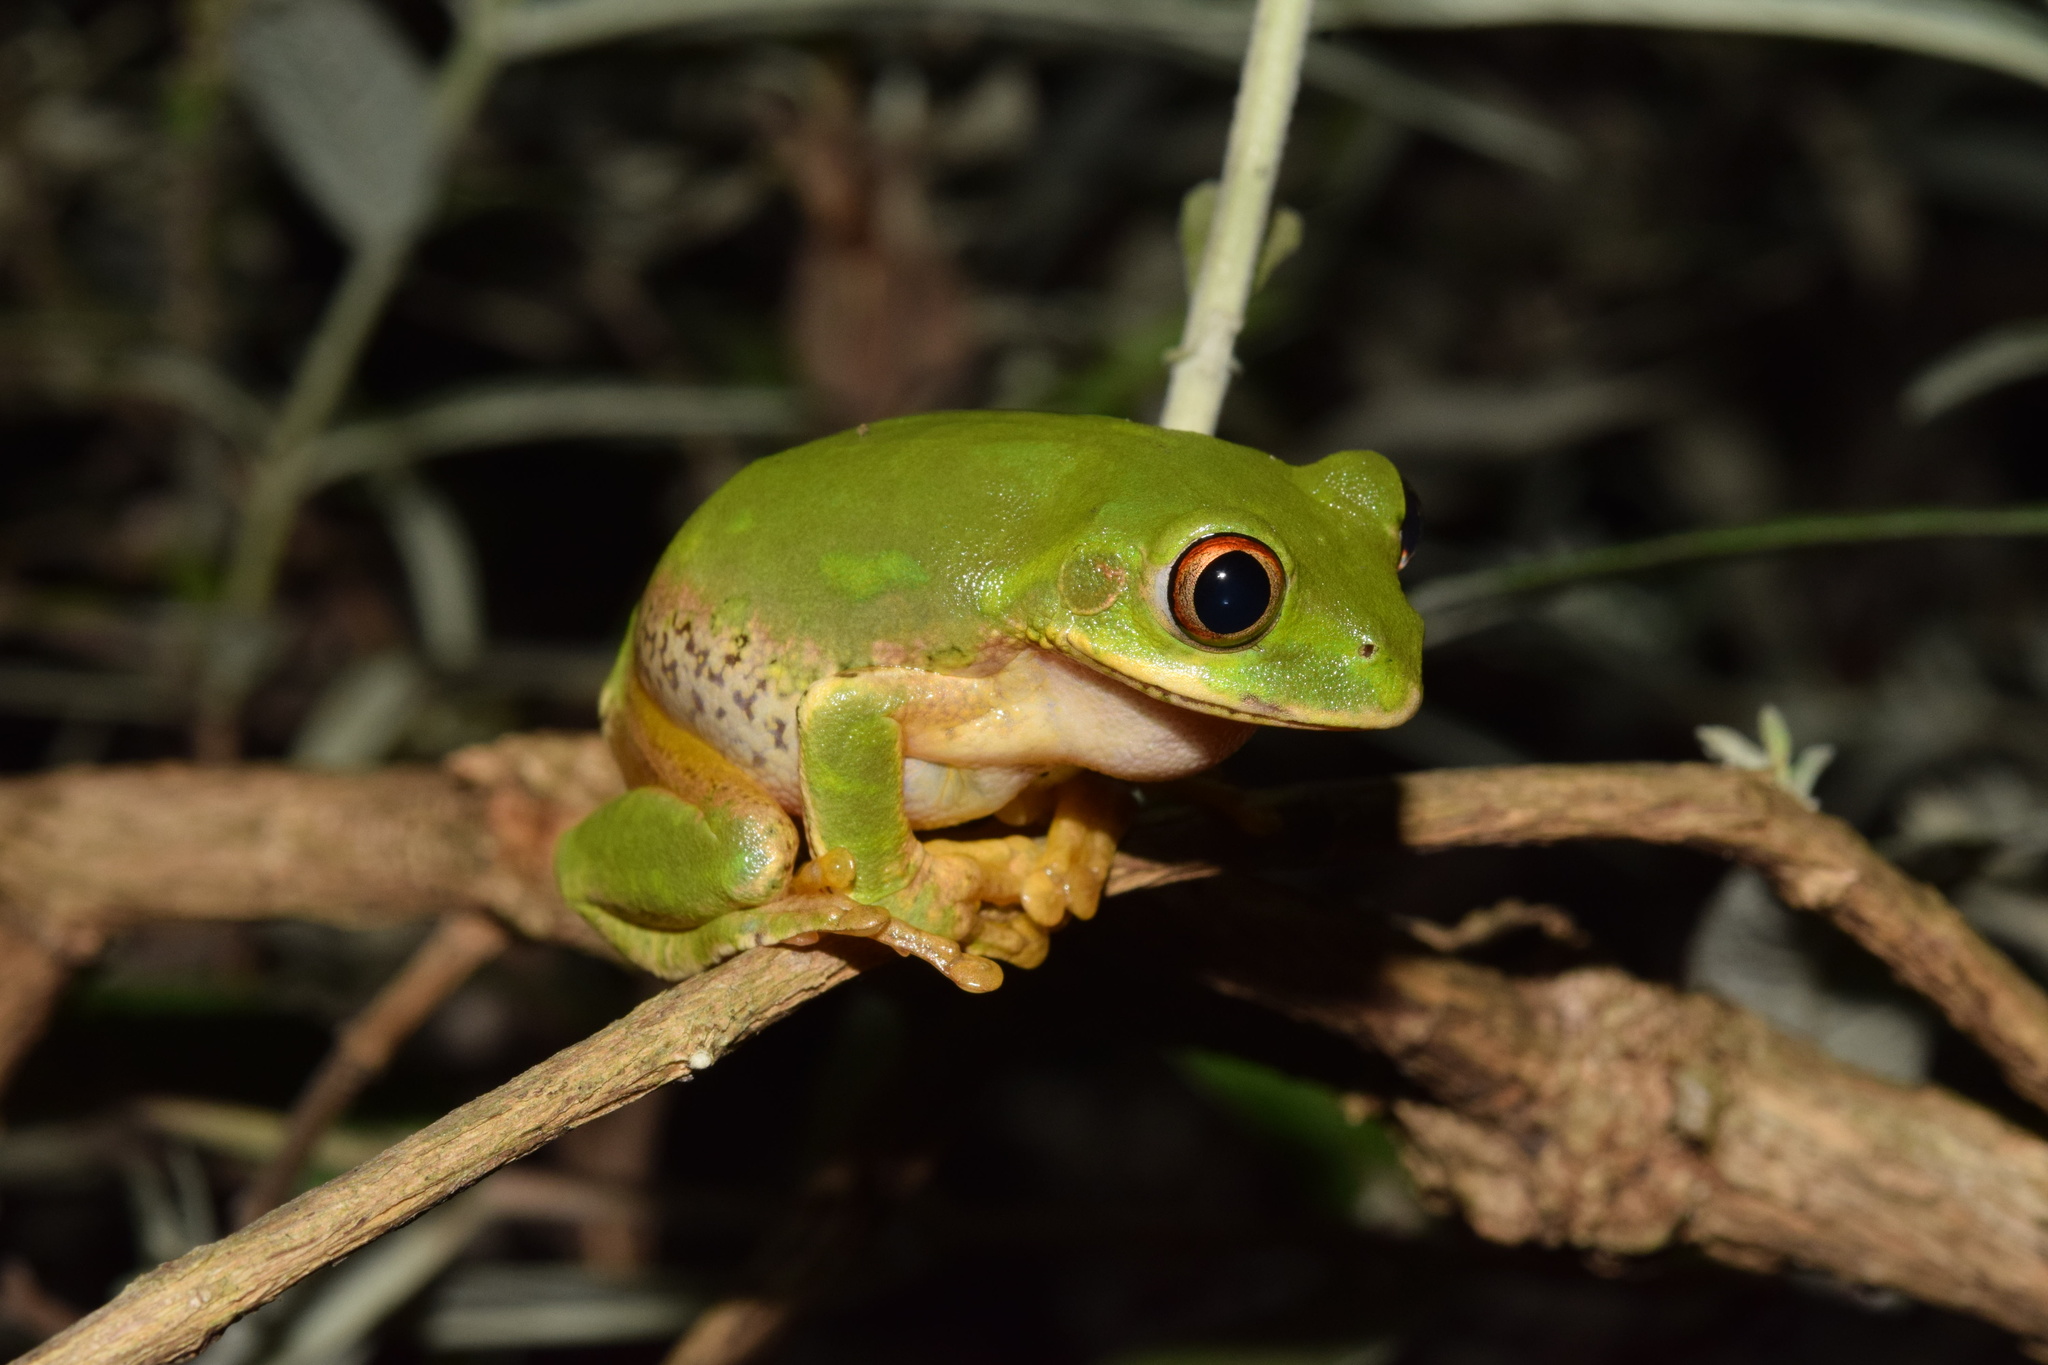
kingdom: Animalia
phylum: Chordata
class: Amphibia
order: Anura
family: Arthroleptidae
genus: Leptopelis
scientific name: Leptopelis natalensis
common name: Natal tree frog
